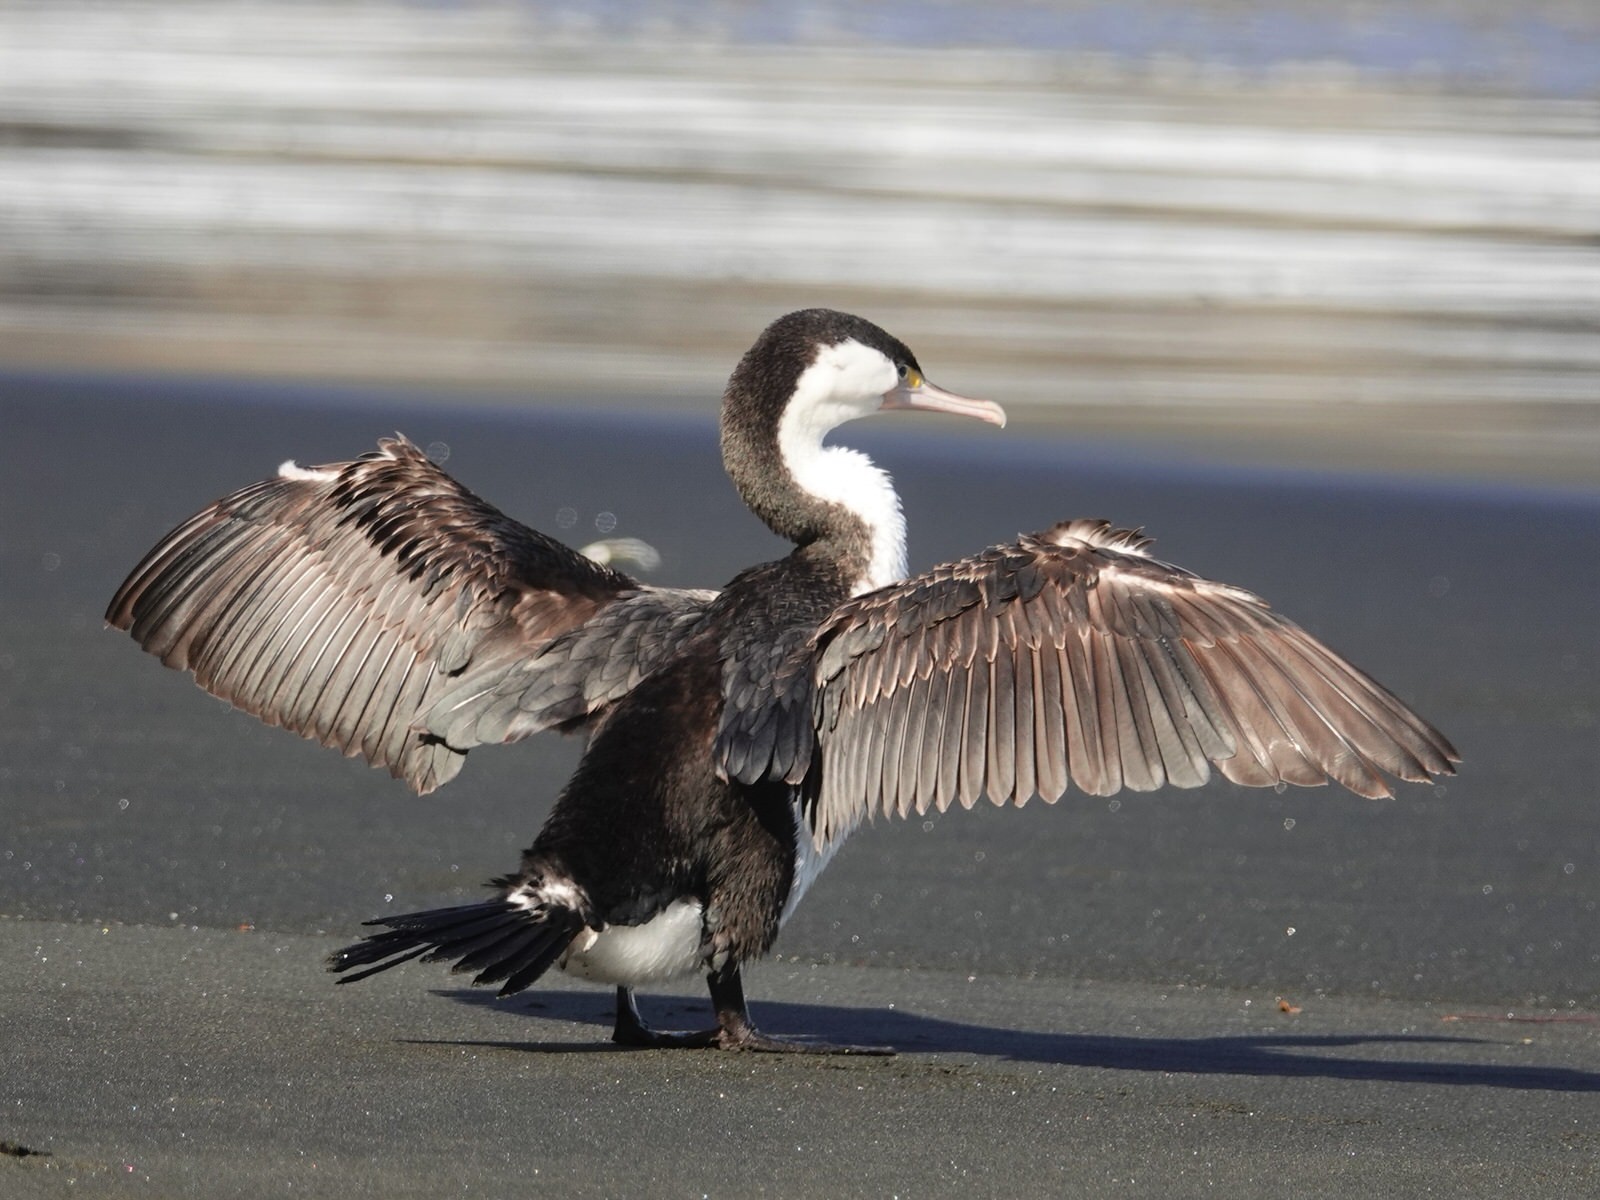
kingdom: Animalia
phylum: Chordata
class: Aves
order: Suliformes
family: Phalacrocoracidae
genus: Phalacrocorax
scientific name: Phalacrocorax varius
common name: Pied cormorant
